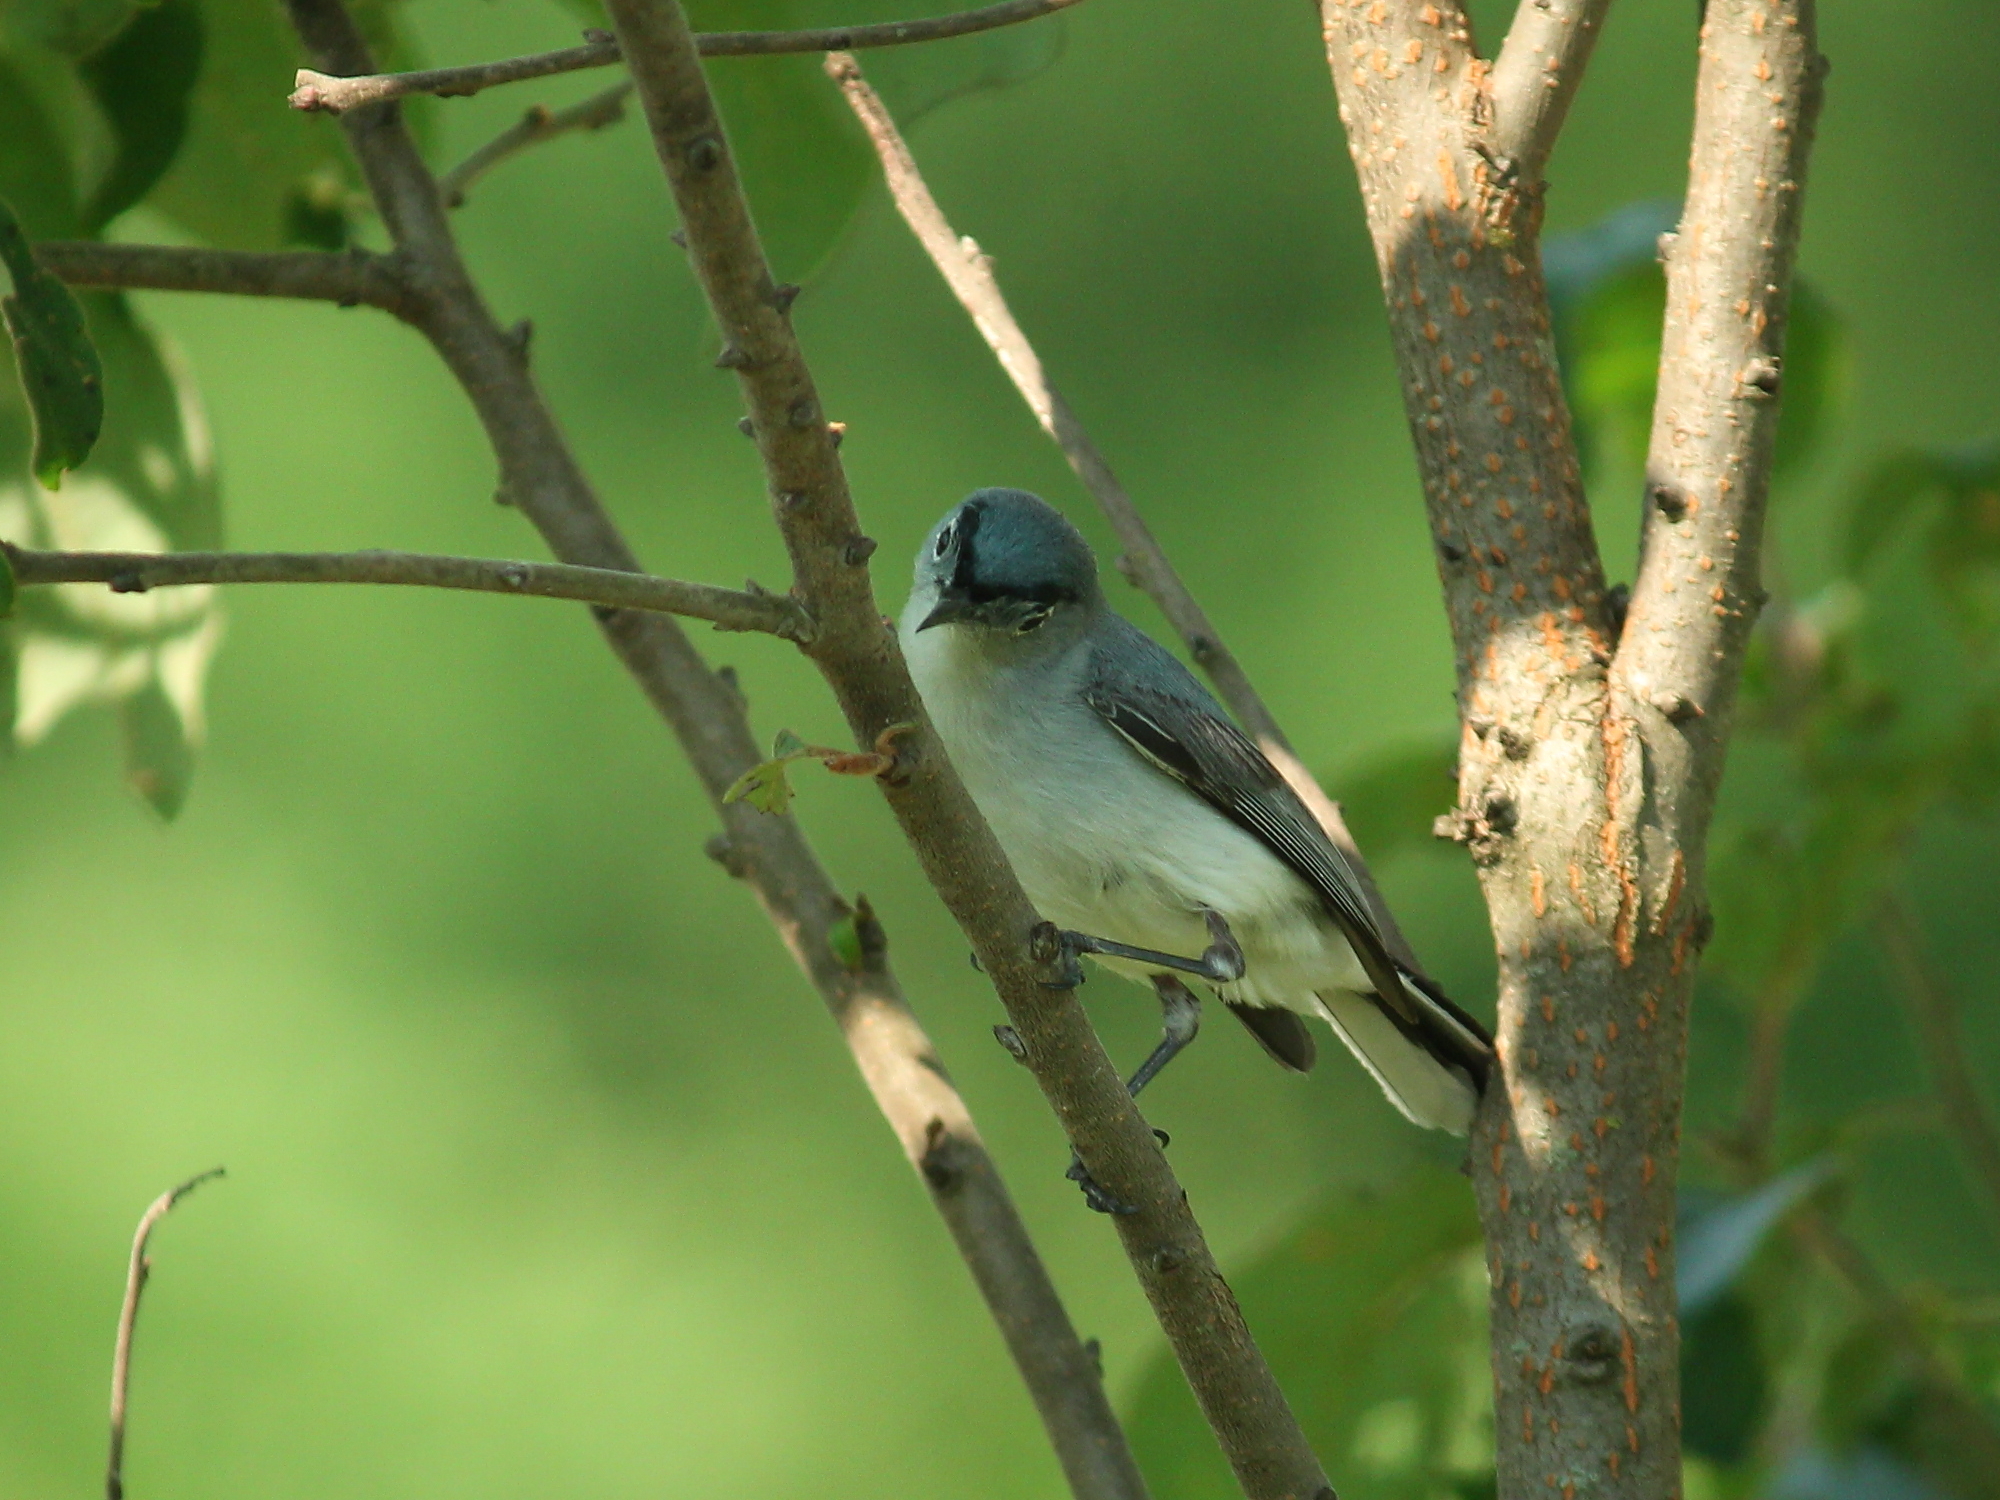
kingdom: Animalia
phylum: Chordata
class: Aves
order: Passeriformes
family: Polioptilidae
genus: Polioptila
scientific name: Polioptila caerulea
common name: Blue-gray gnatcatcher
